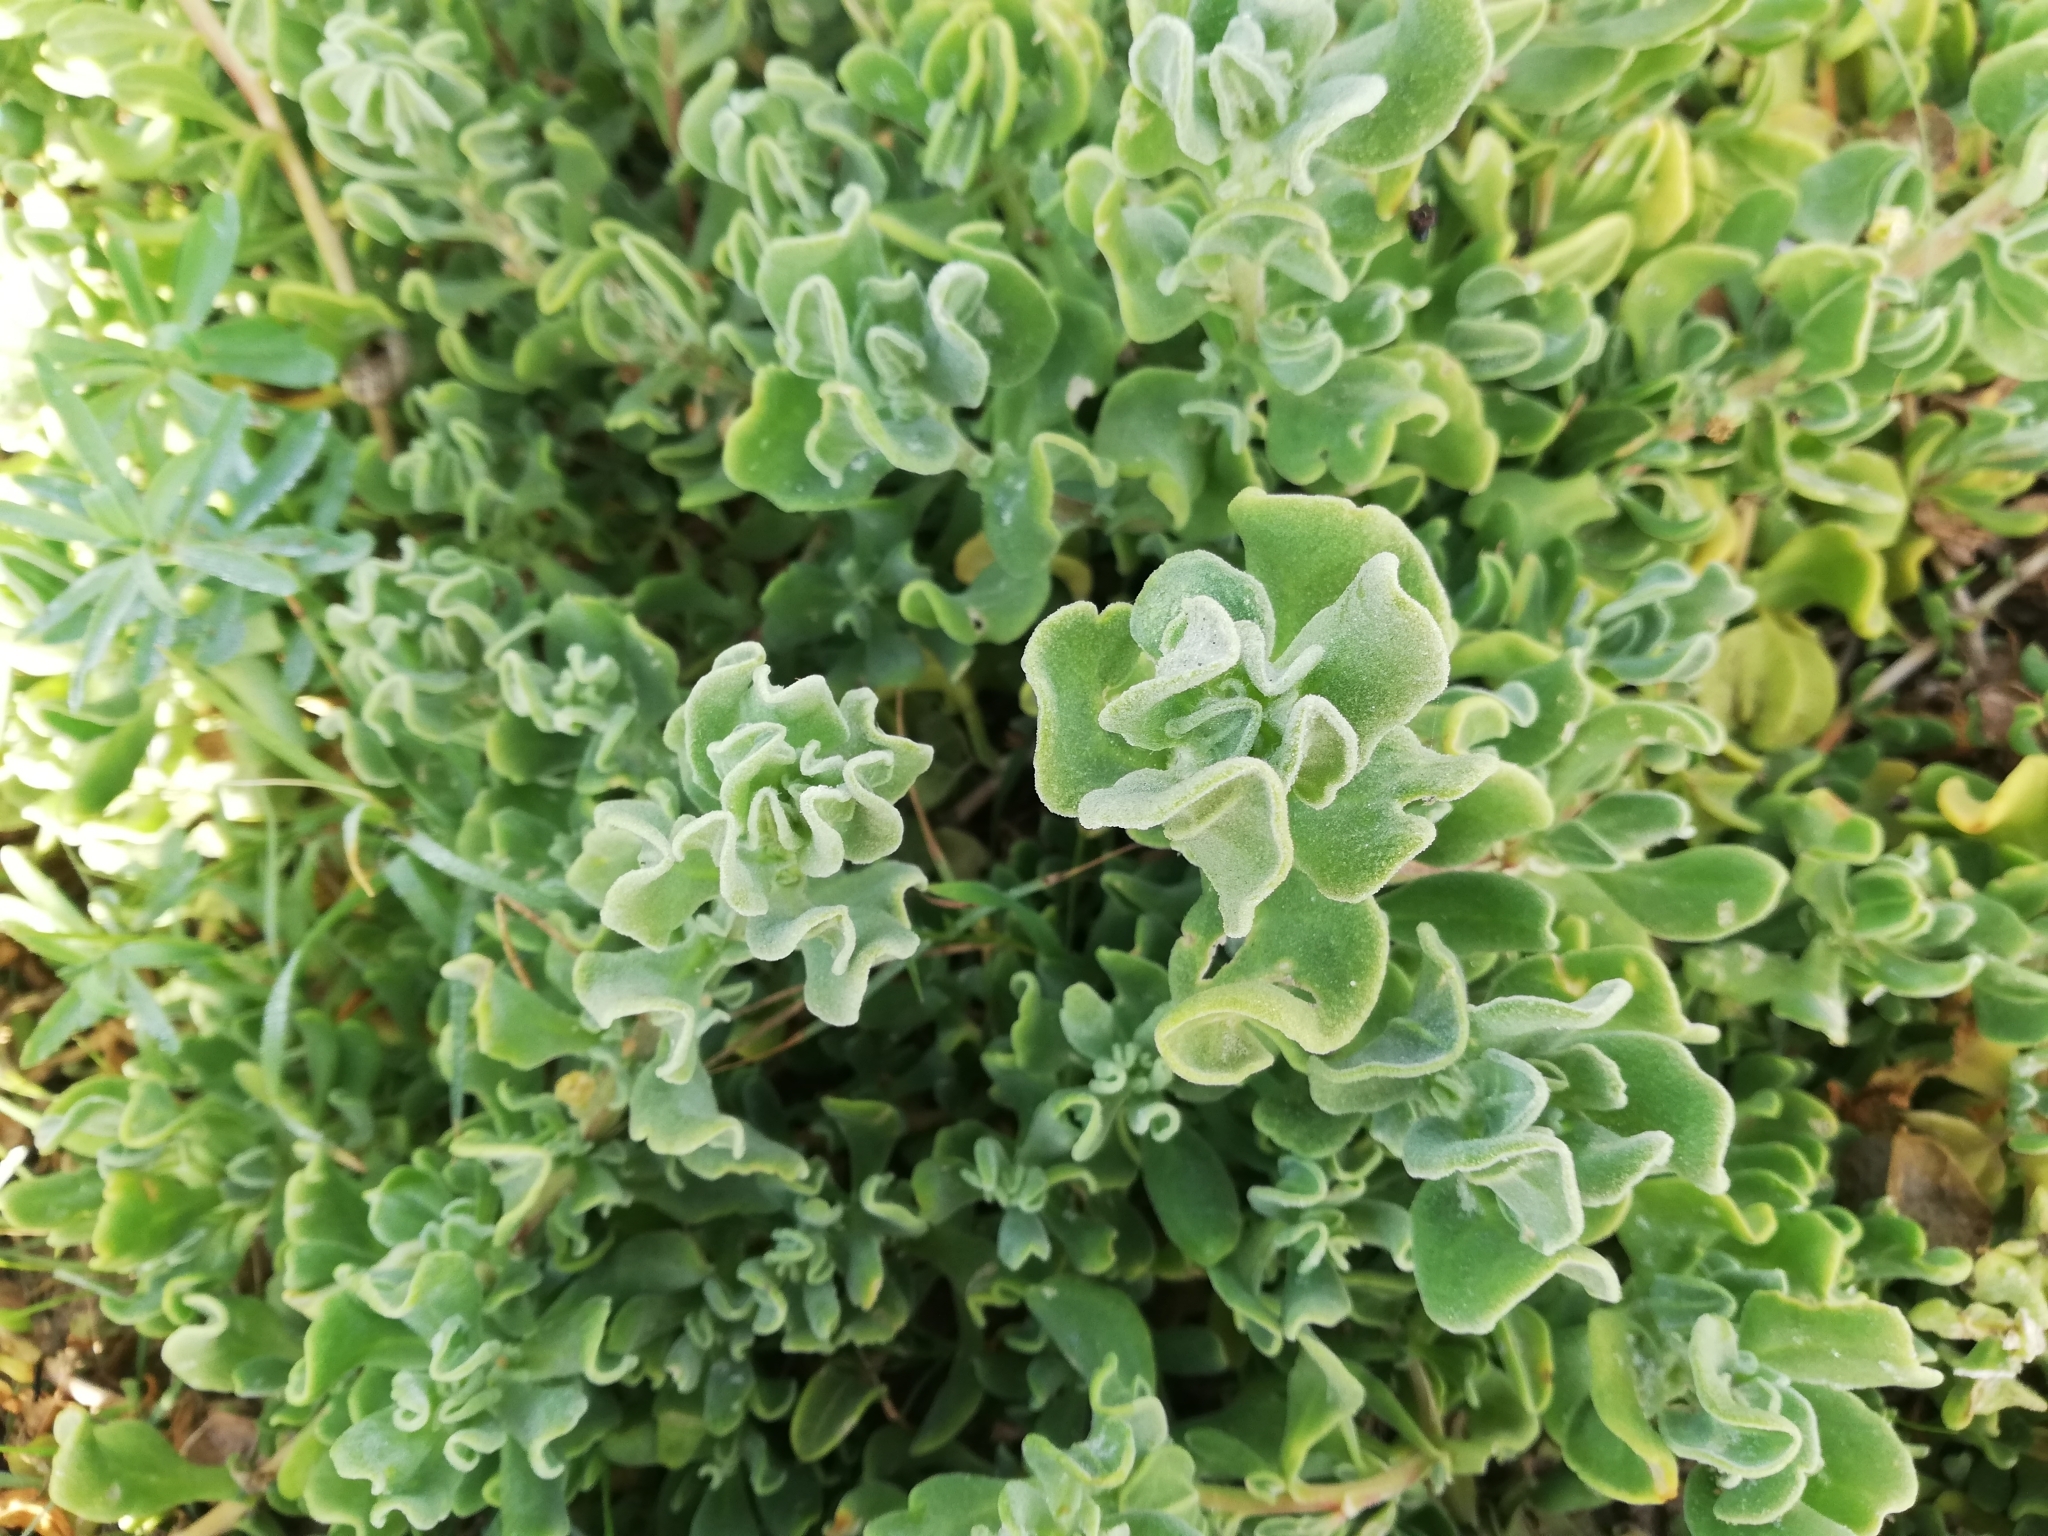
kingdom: Plantae
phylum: Tracheophyta
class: Magnoliopsida
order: Caryophyllales
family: Aizoaceae
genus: Tetragonia
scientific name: Tetragonia decumbens
